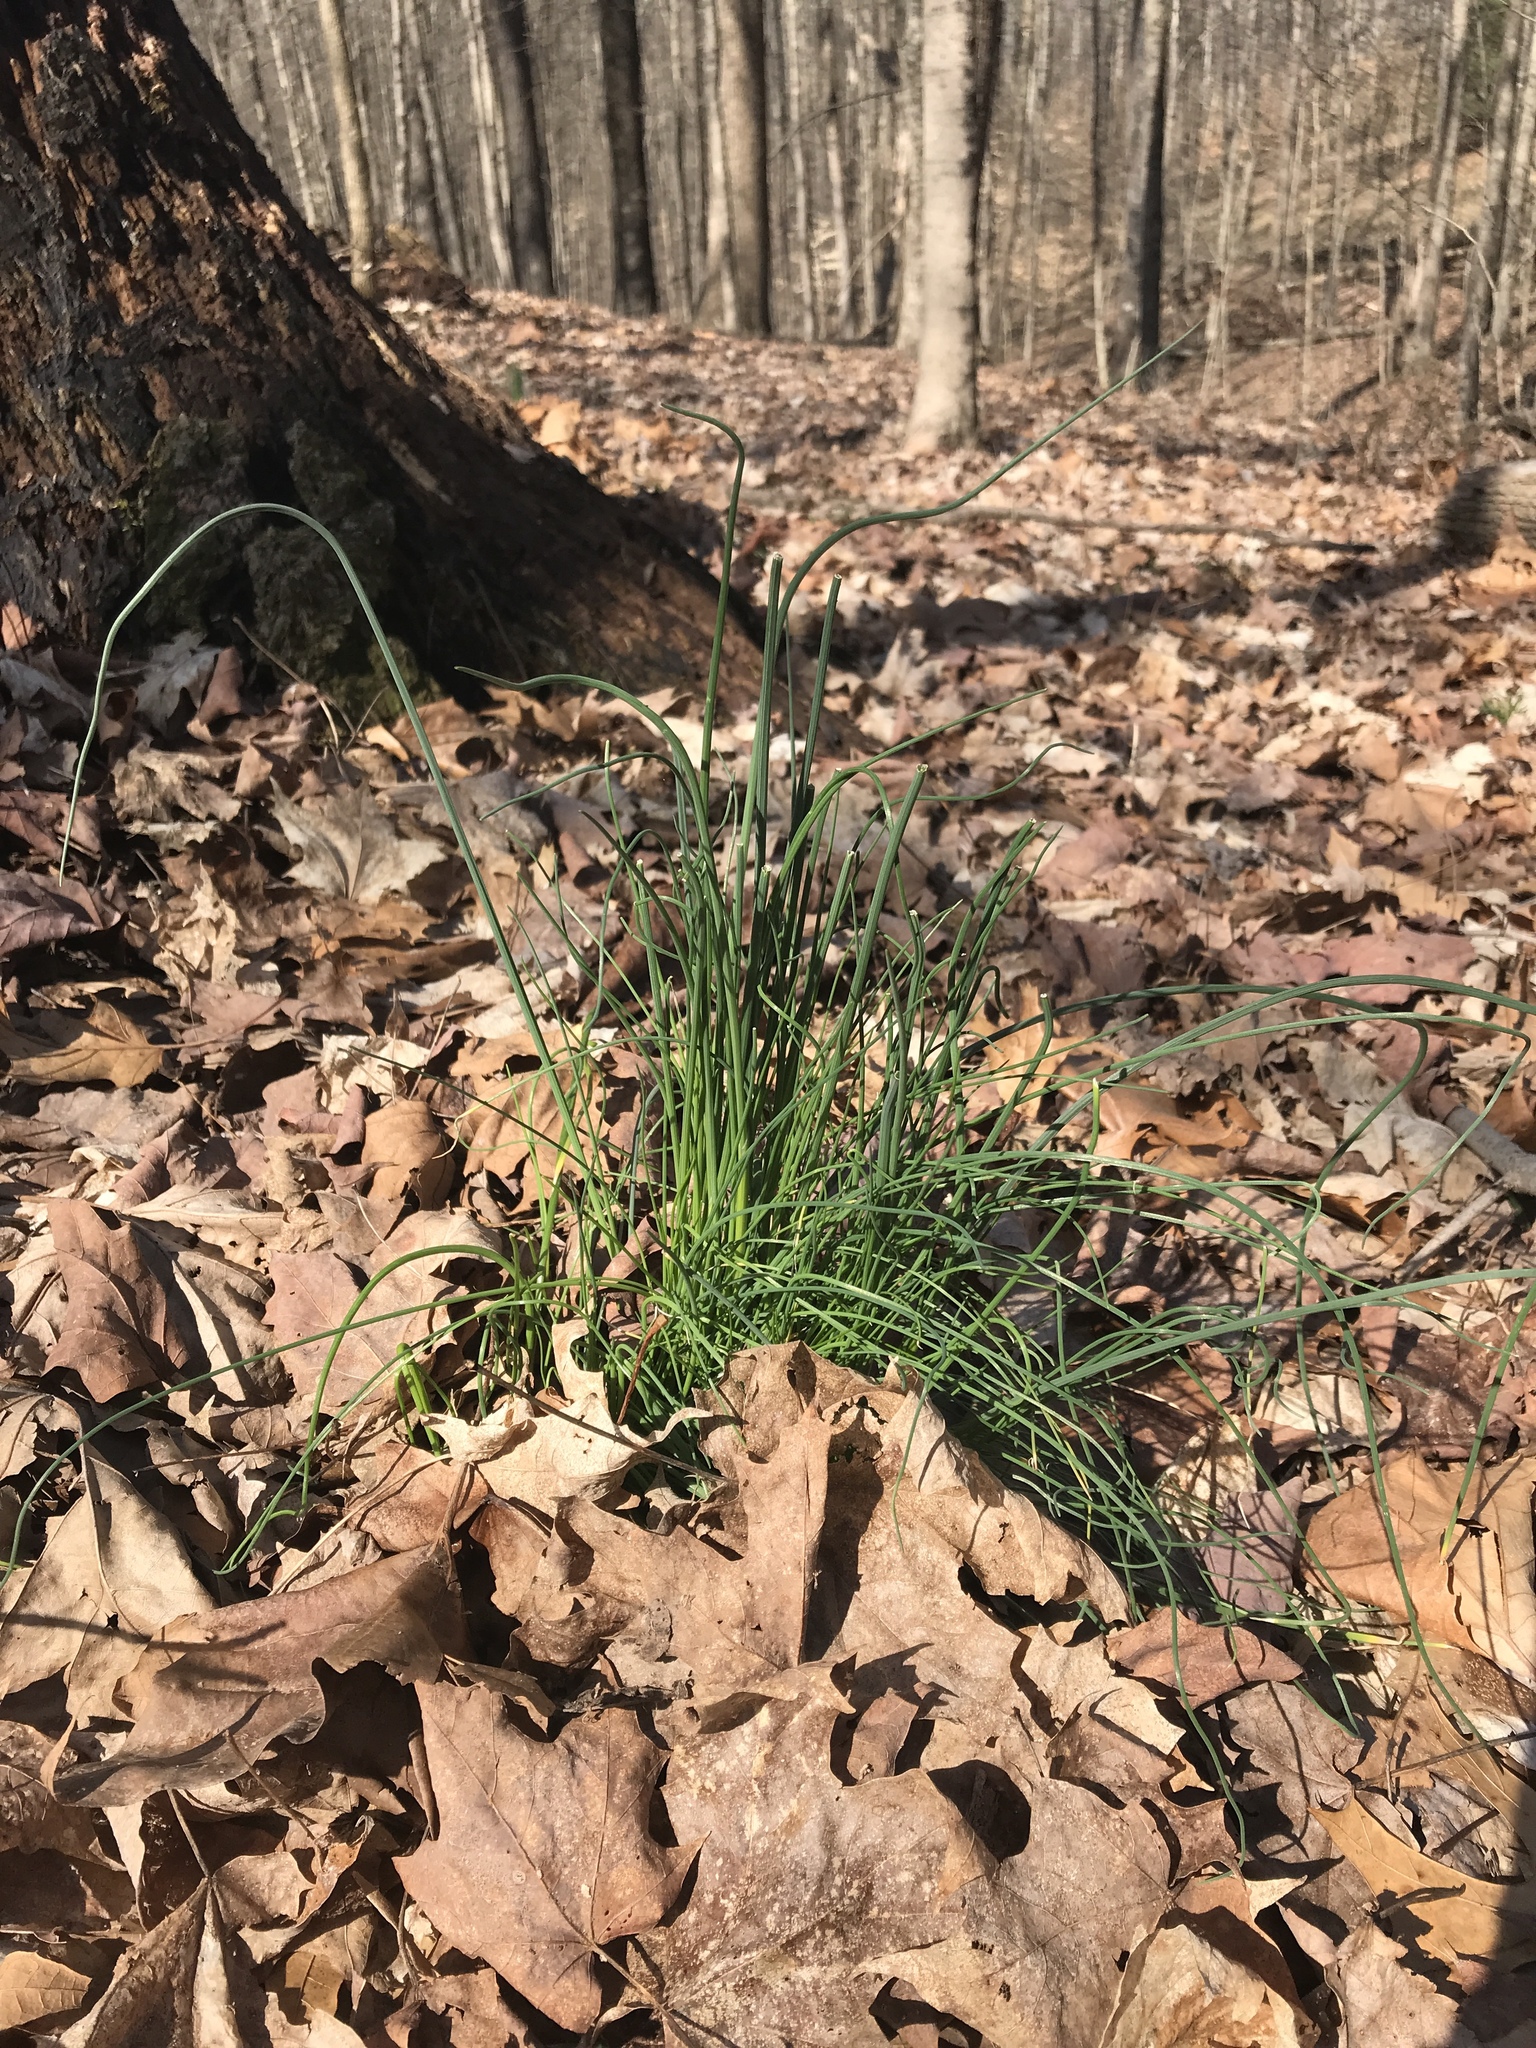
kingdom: Plantae
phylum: Tracheophyta
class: Liliopsida
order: Asparagales
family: Amaryllidaceae
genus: Allium
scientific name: Allium cernuum
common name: Nodding onion
